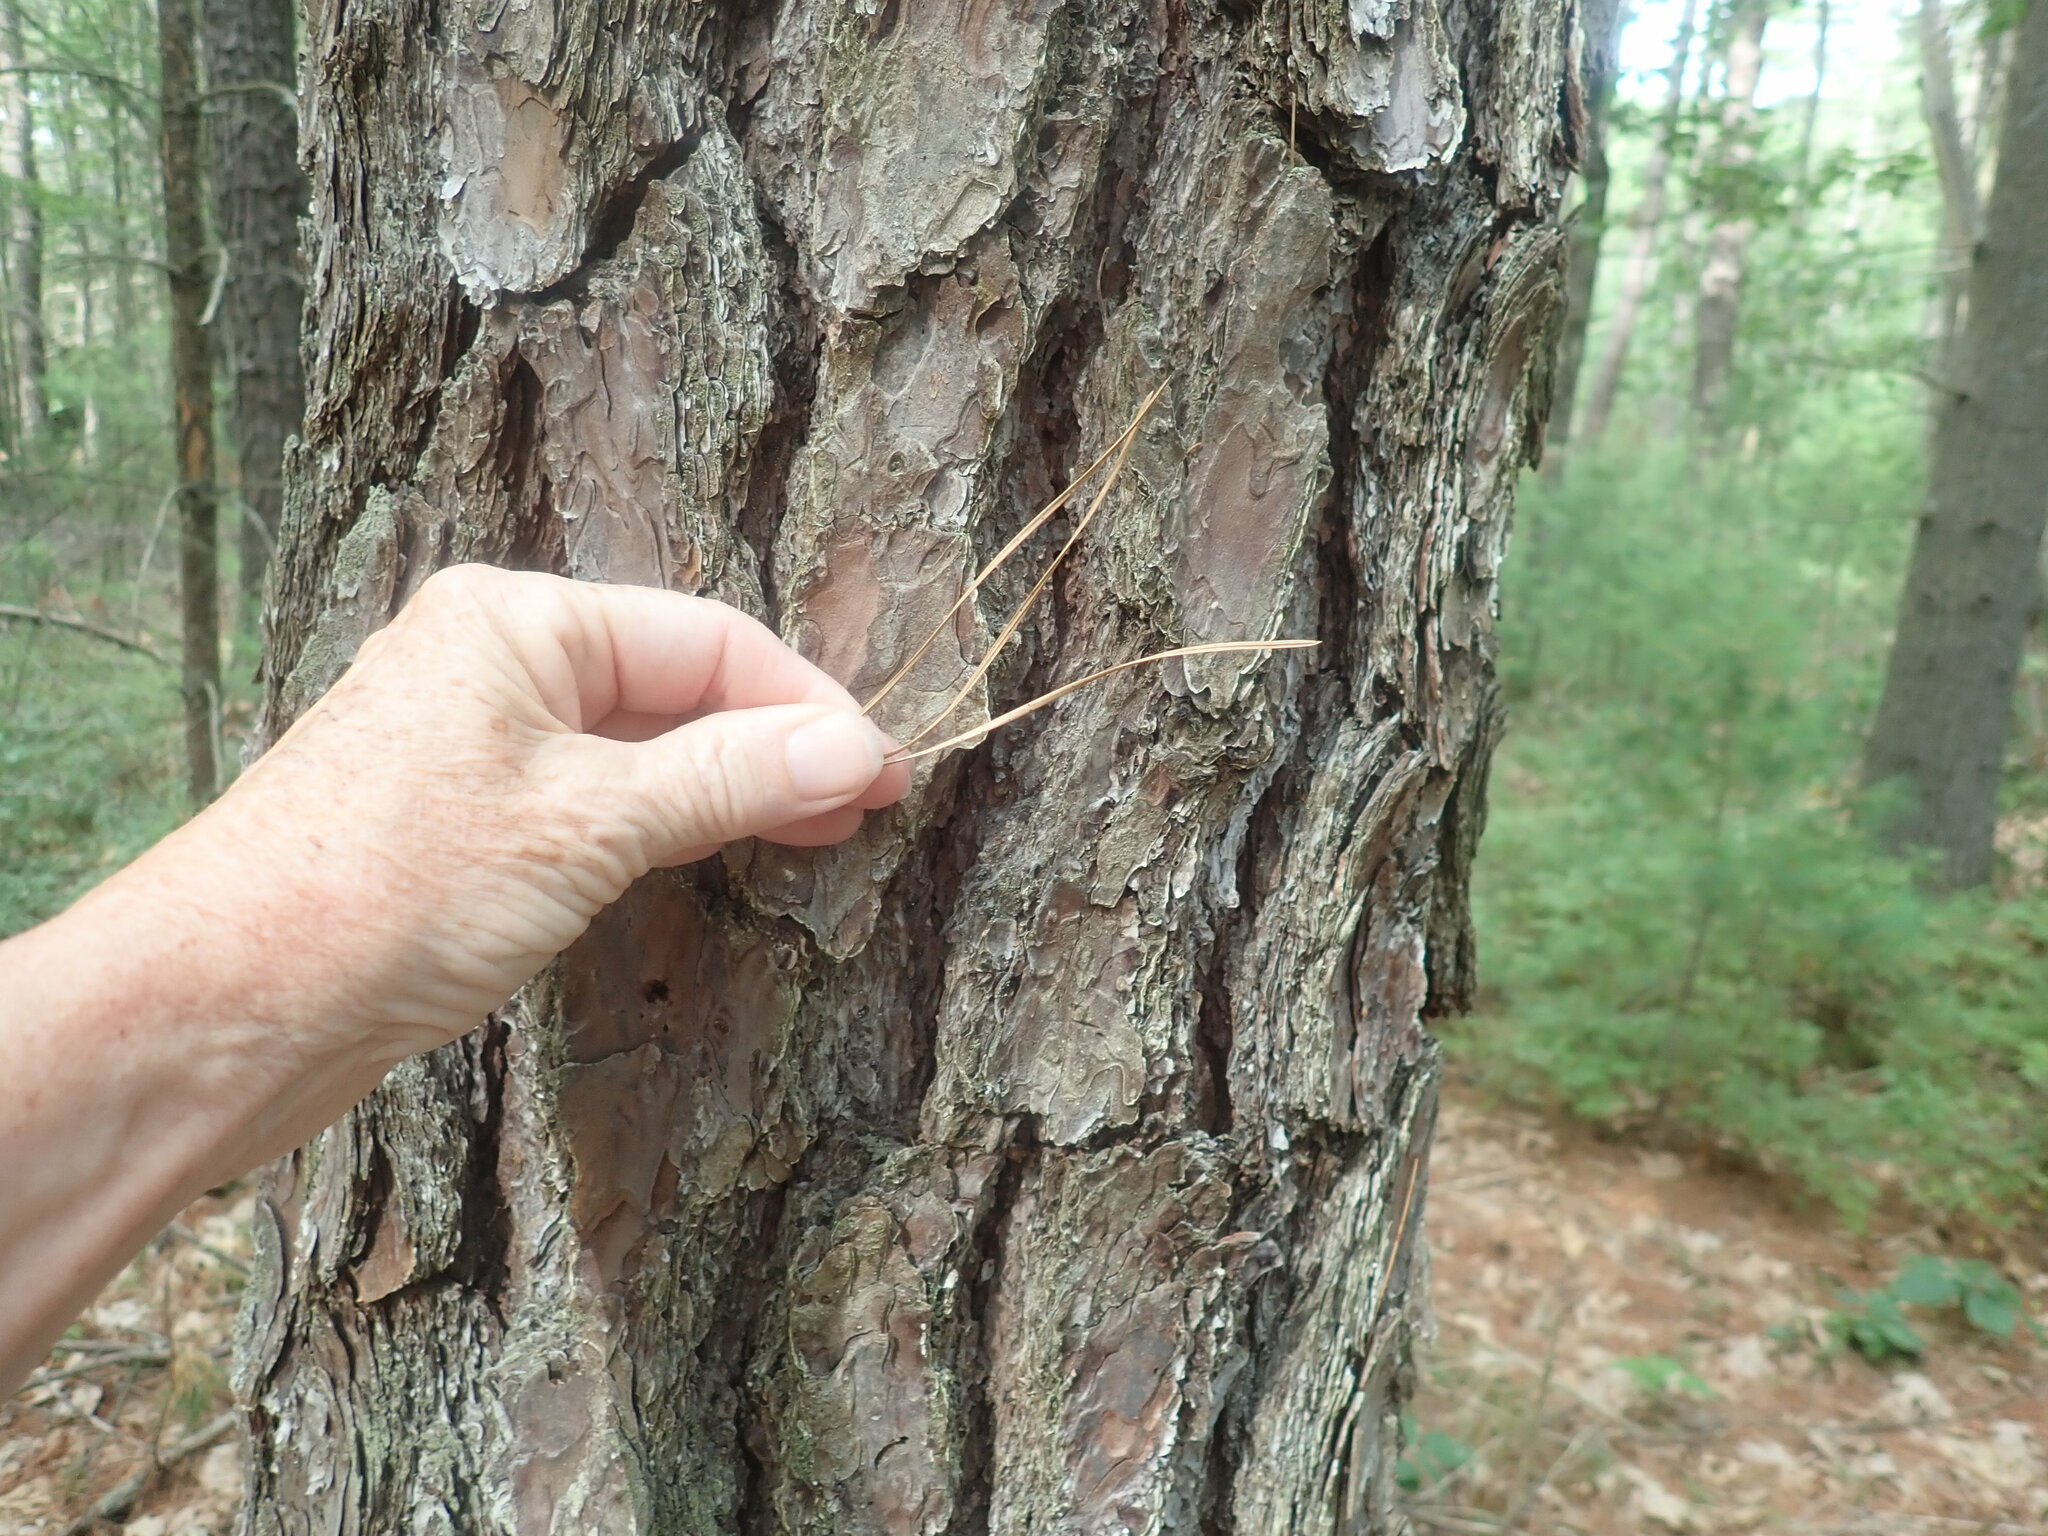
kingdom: Plantae
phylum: Tracheophyta
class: Pinopsida
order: Pinales
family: Pinaceae
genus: Pinus
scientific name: Pinus rigida
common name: Pitch pine
